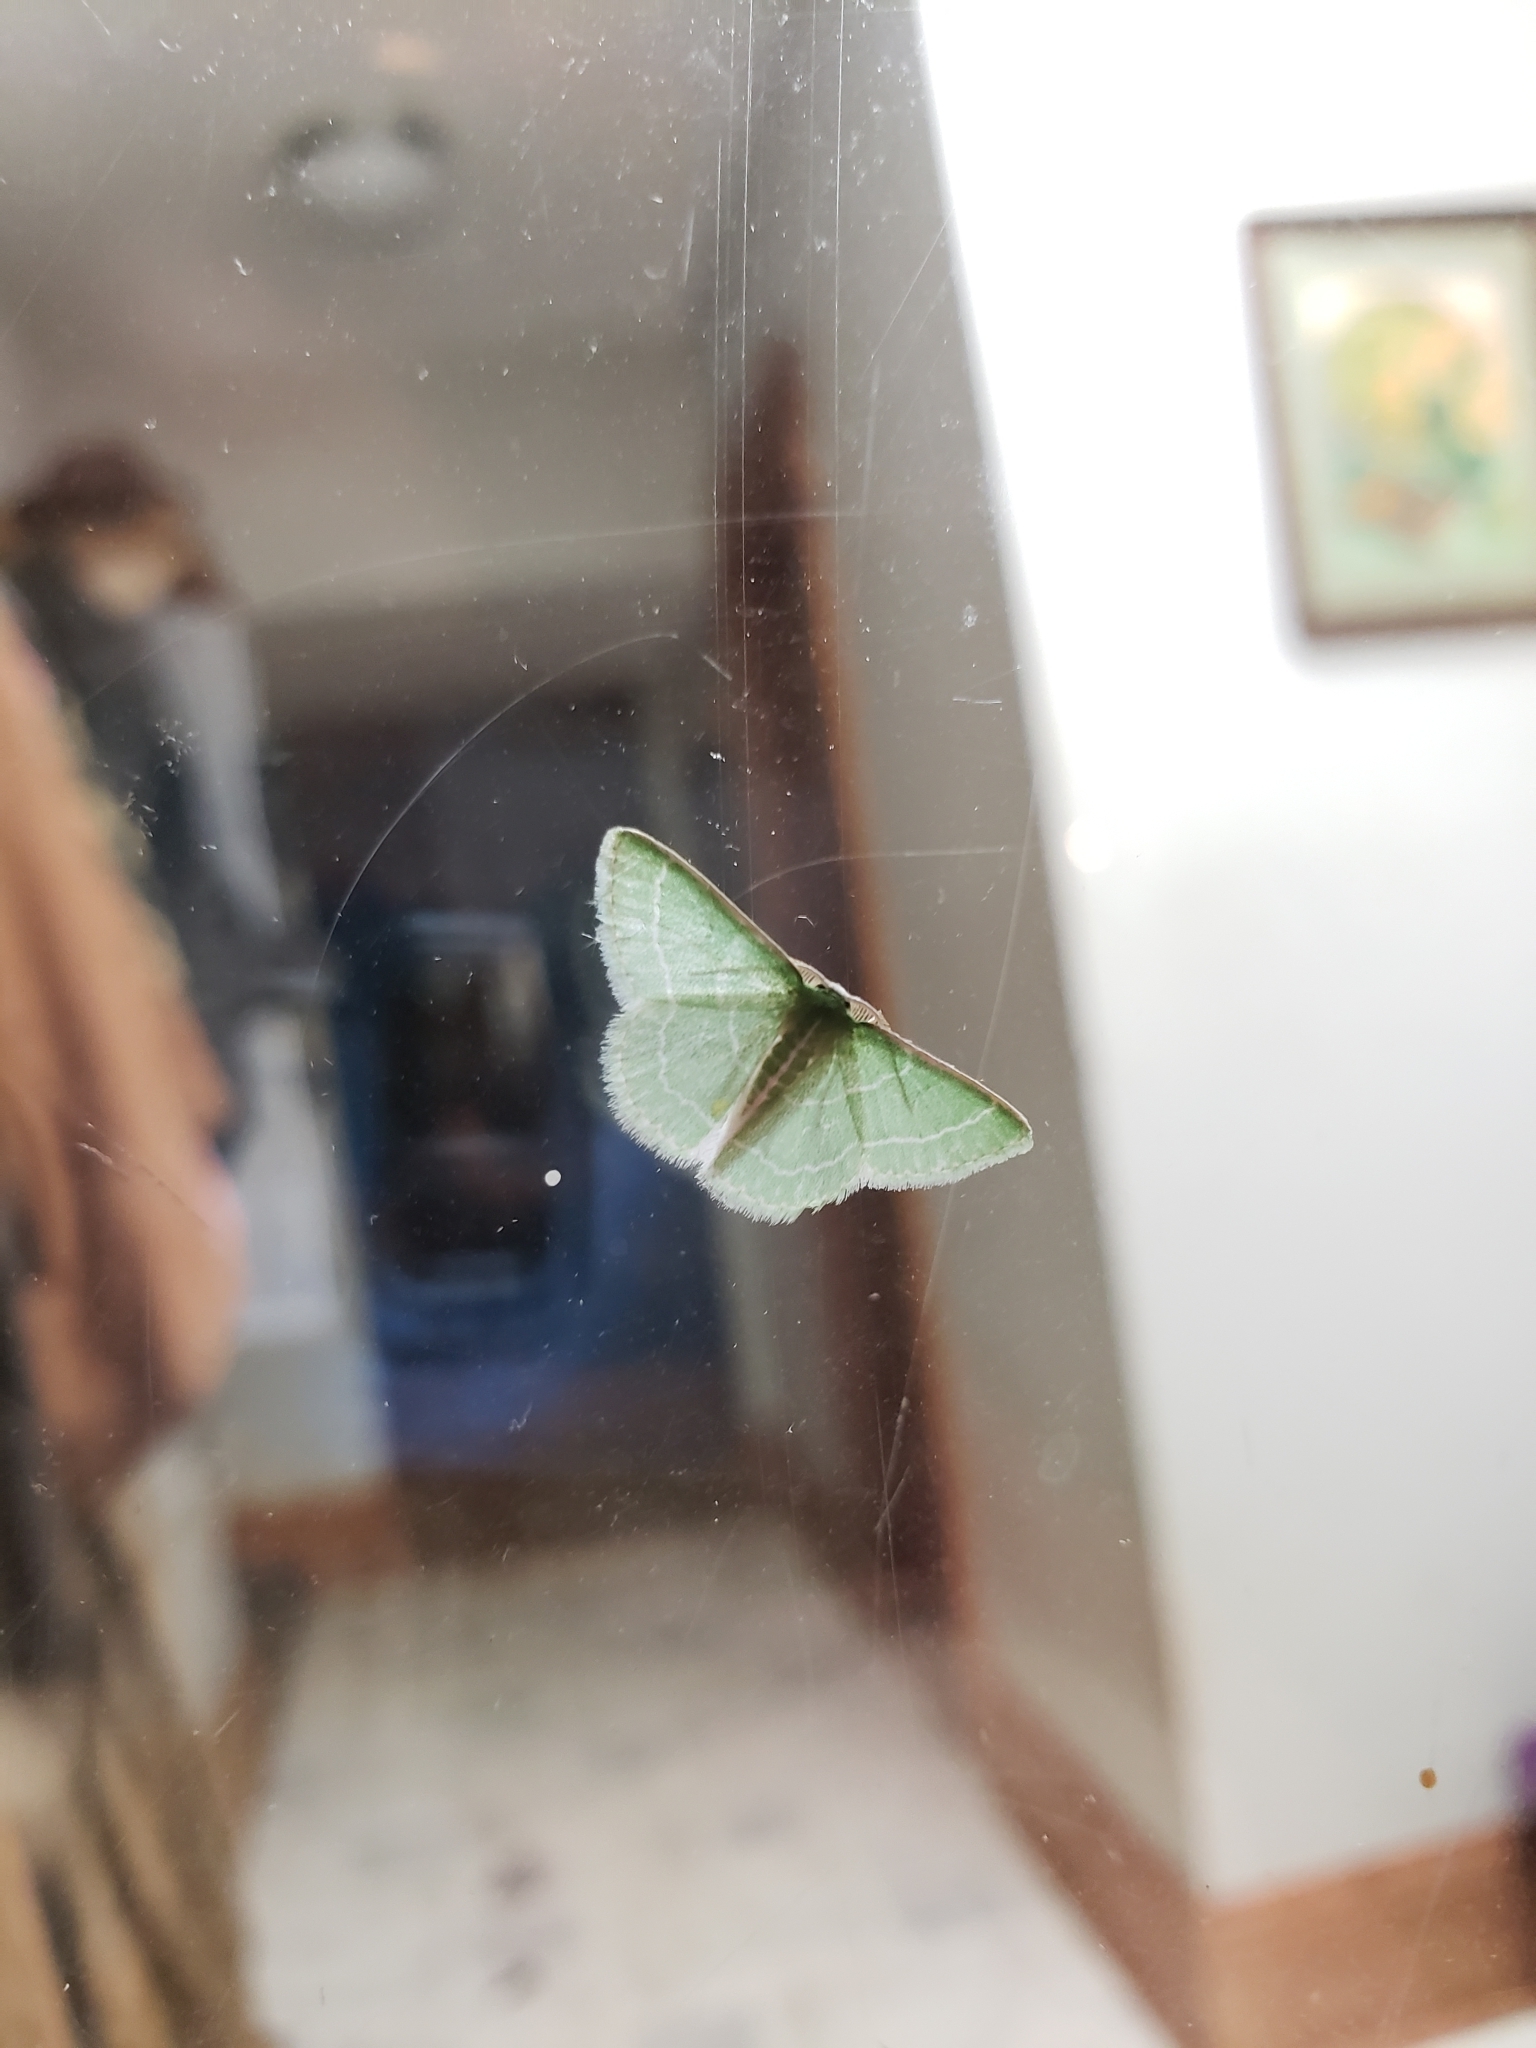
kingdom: Animalia
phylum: Arthropoda
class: Insecta
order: Lepidoptera
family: Geometridae
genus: Synchlora
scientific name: Synchlora aerata
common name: Wavy-lined emerald
